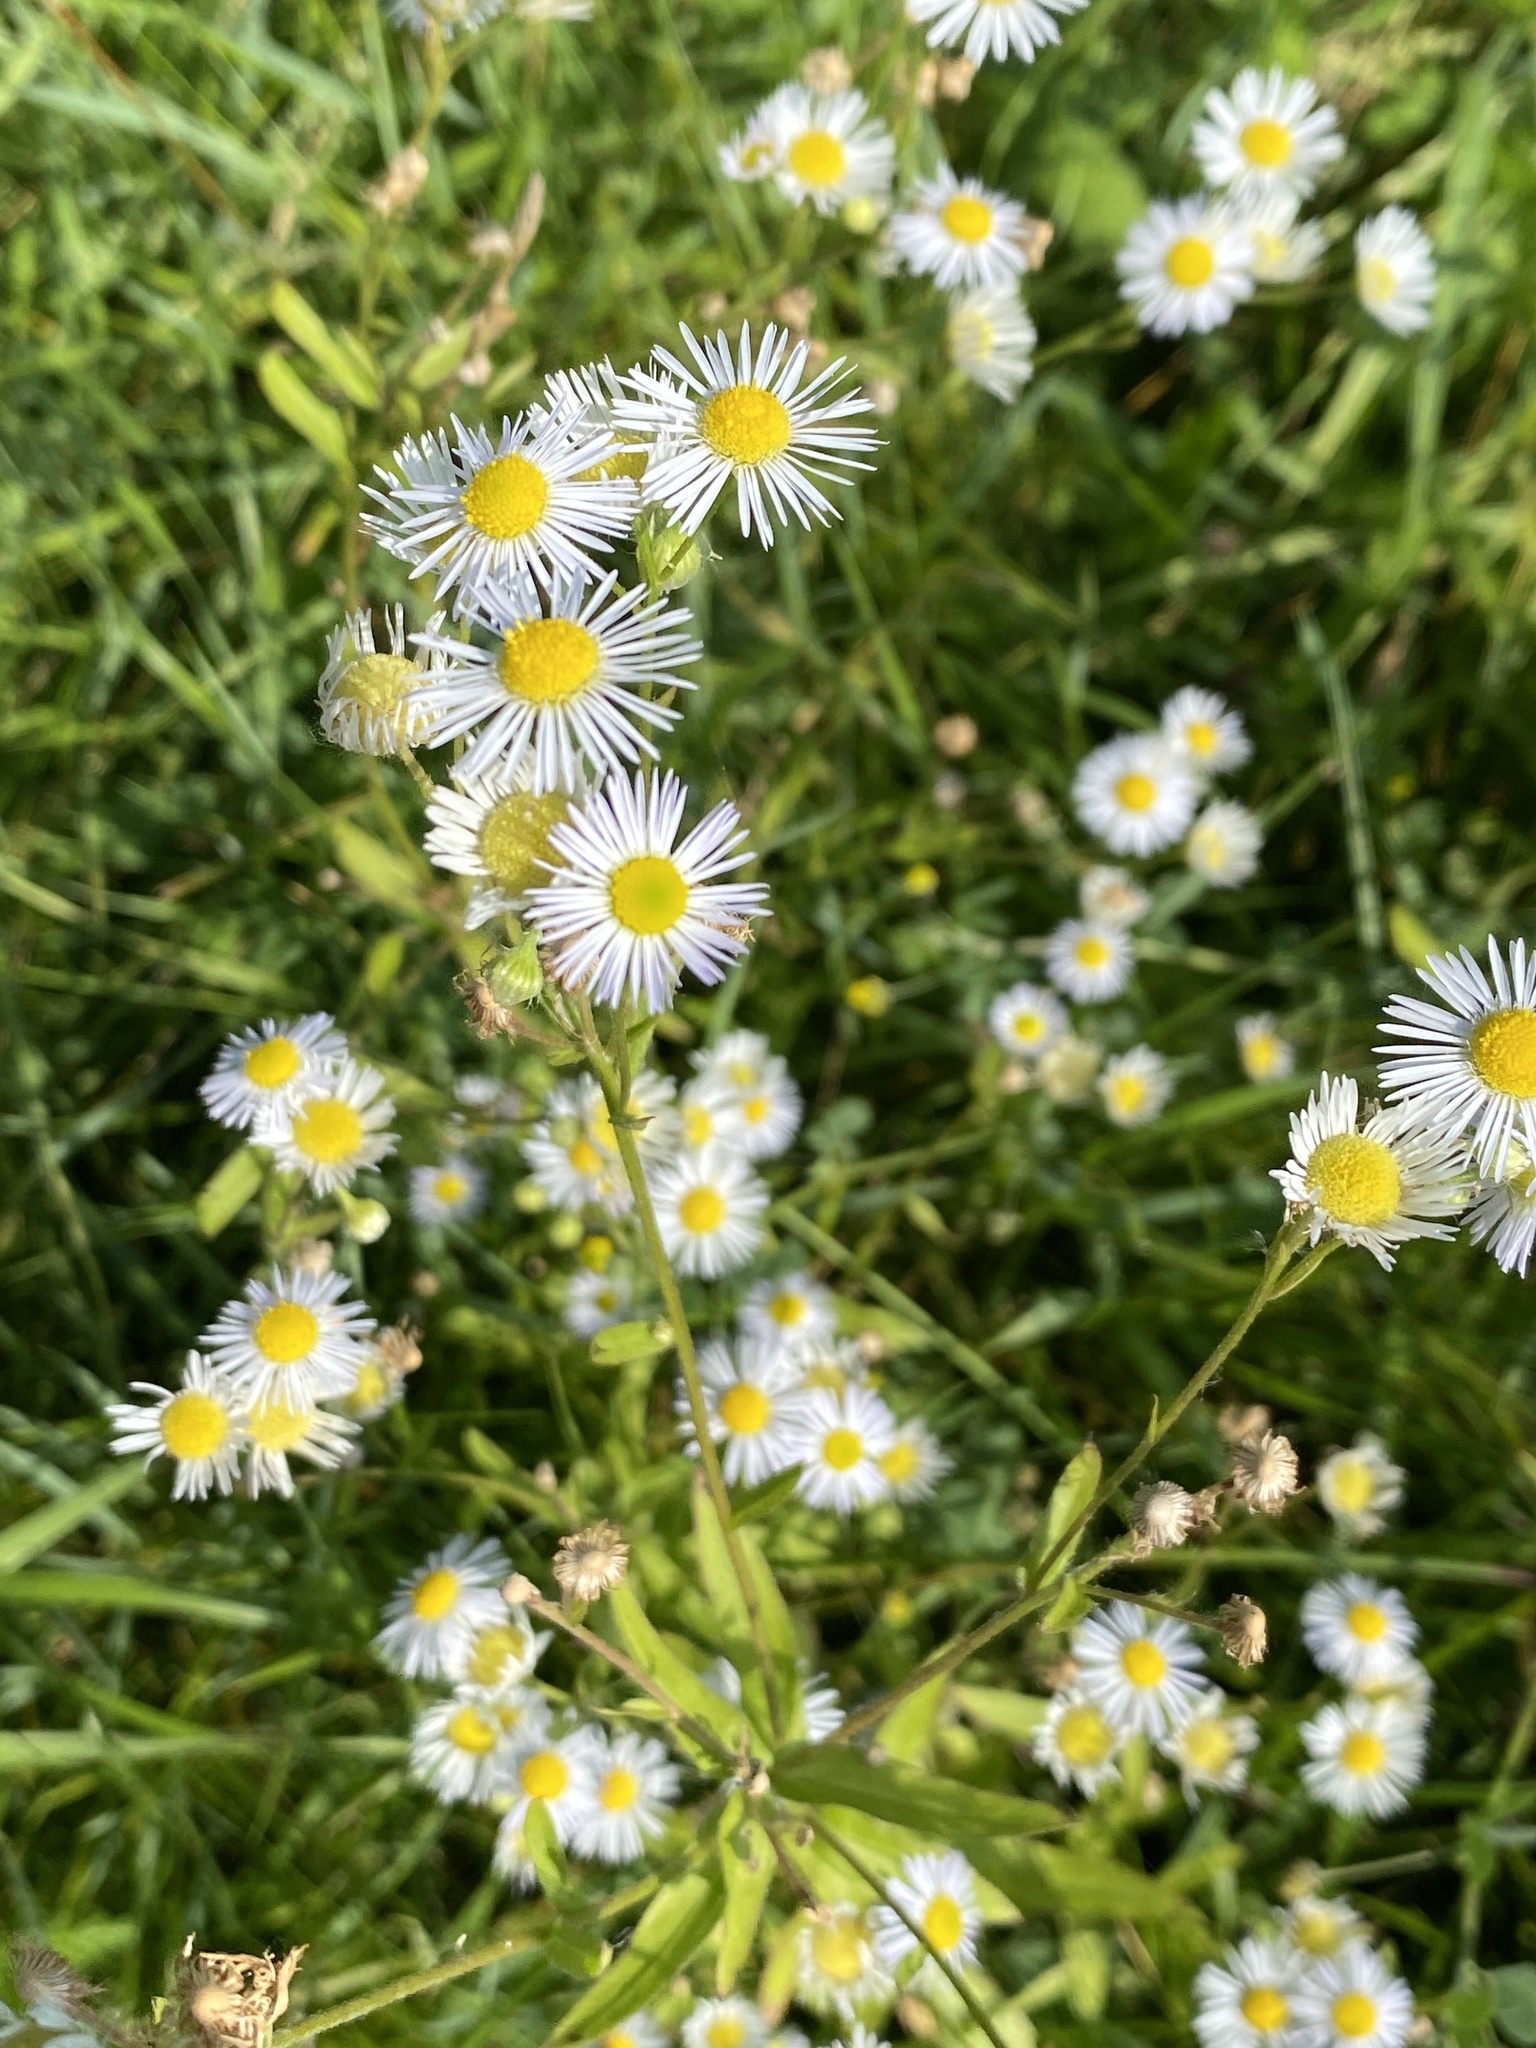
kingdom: Plantae
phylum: Tracheophyta
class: Magnoliopsida
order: Asterales
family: Asteraceae
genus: Erigeron
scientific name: Erigeron annuus
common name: Tall fleabane
